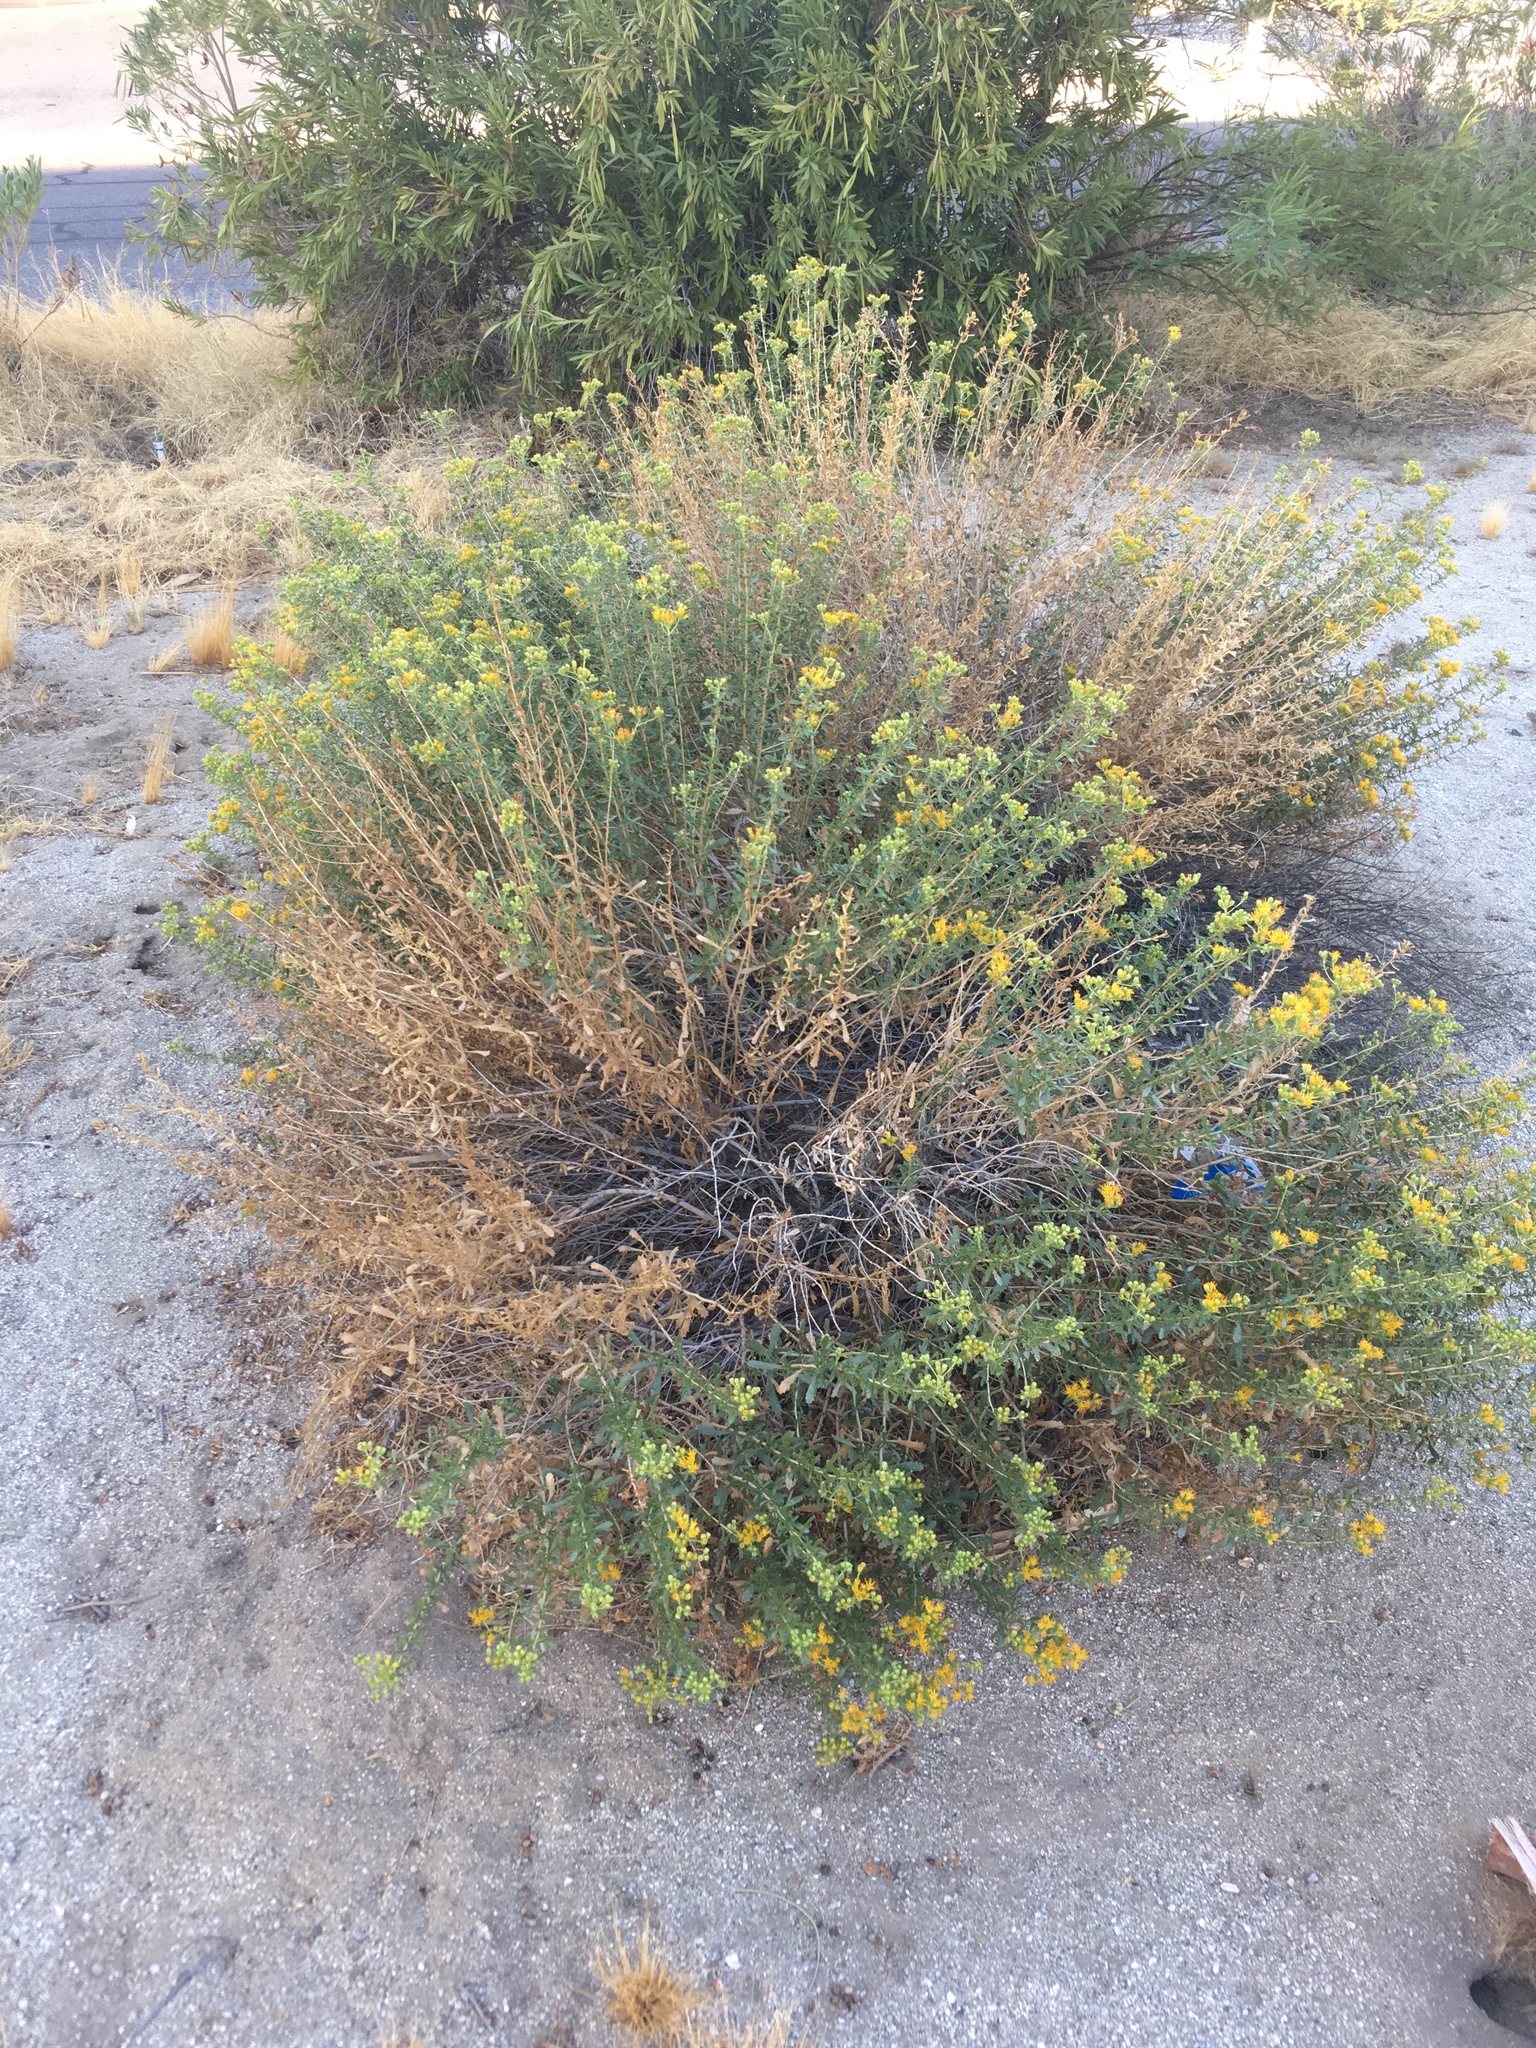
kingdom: Plantae
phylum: Tracheophyta
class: Magnoliopsida
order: Asterales
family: Asteraceae
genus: Isocoma
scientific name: Isocoma acradenia
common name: Alkali jimmyweed
